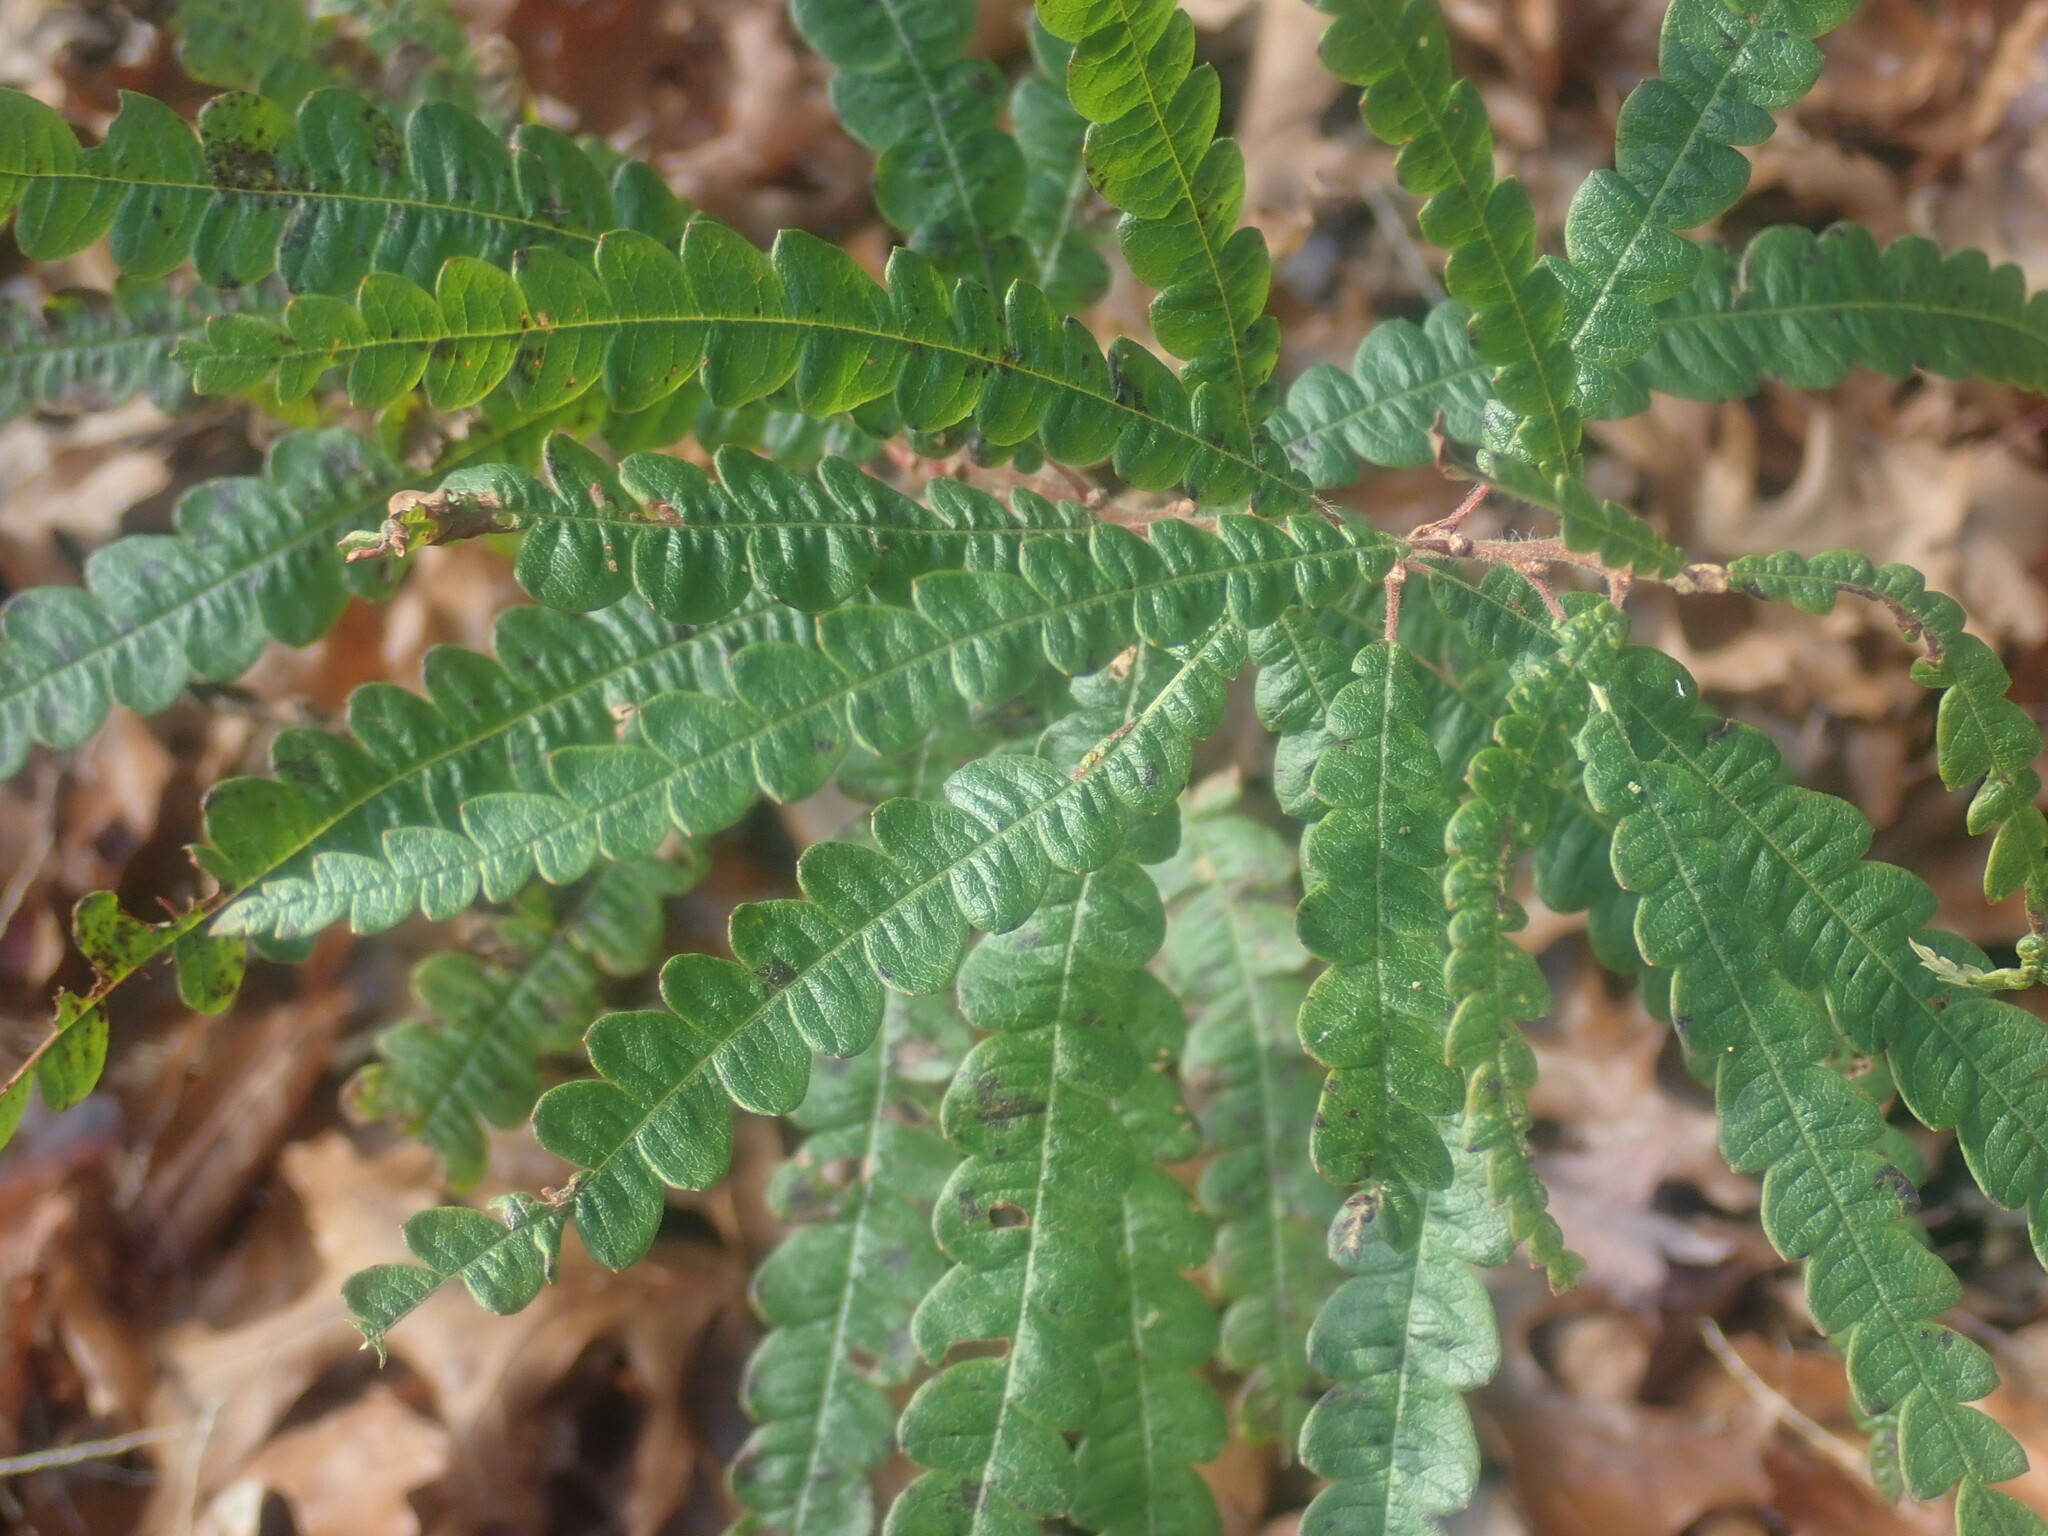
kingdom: Plantae
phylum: Tracheophyta
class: Magnoliopsida
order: Fagales
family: Myricaceae
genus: Comptonia
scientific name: Comptonia peregrina
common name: Sweet-fern
